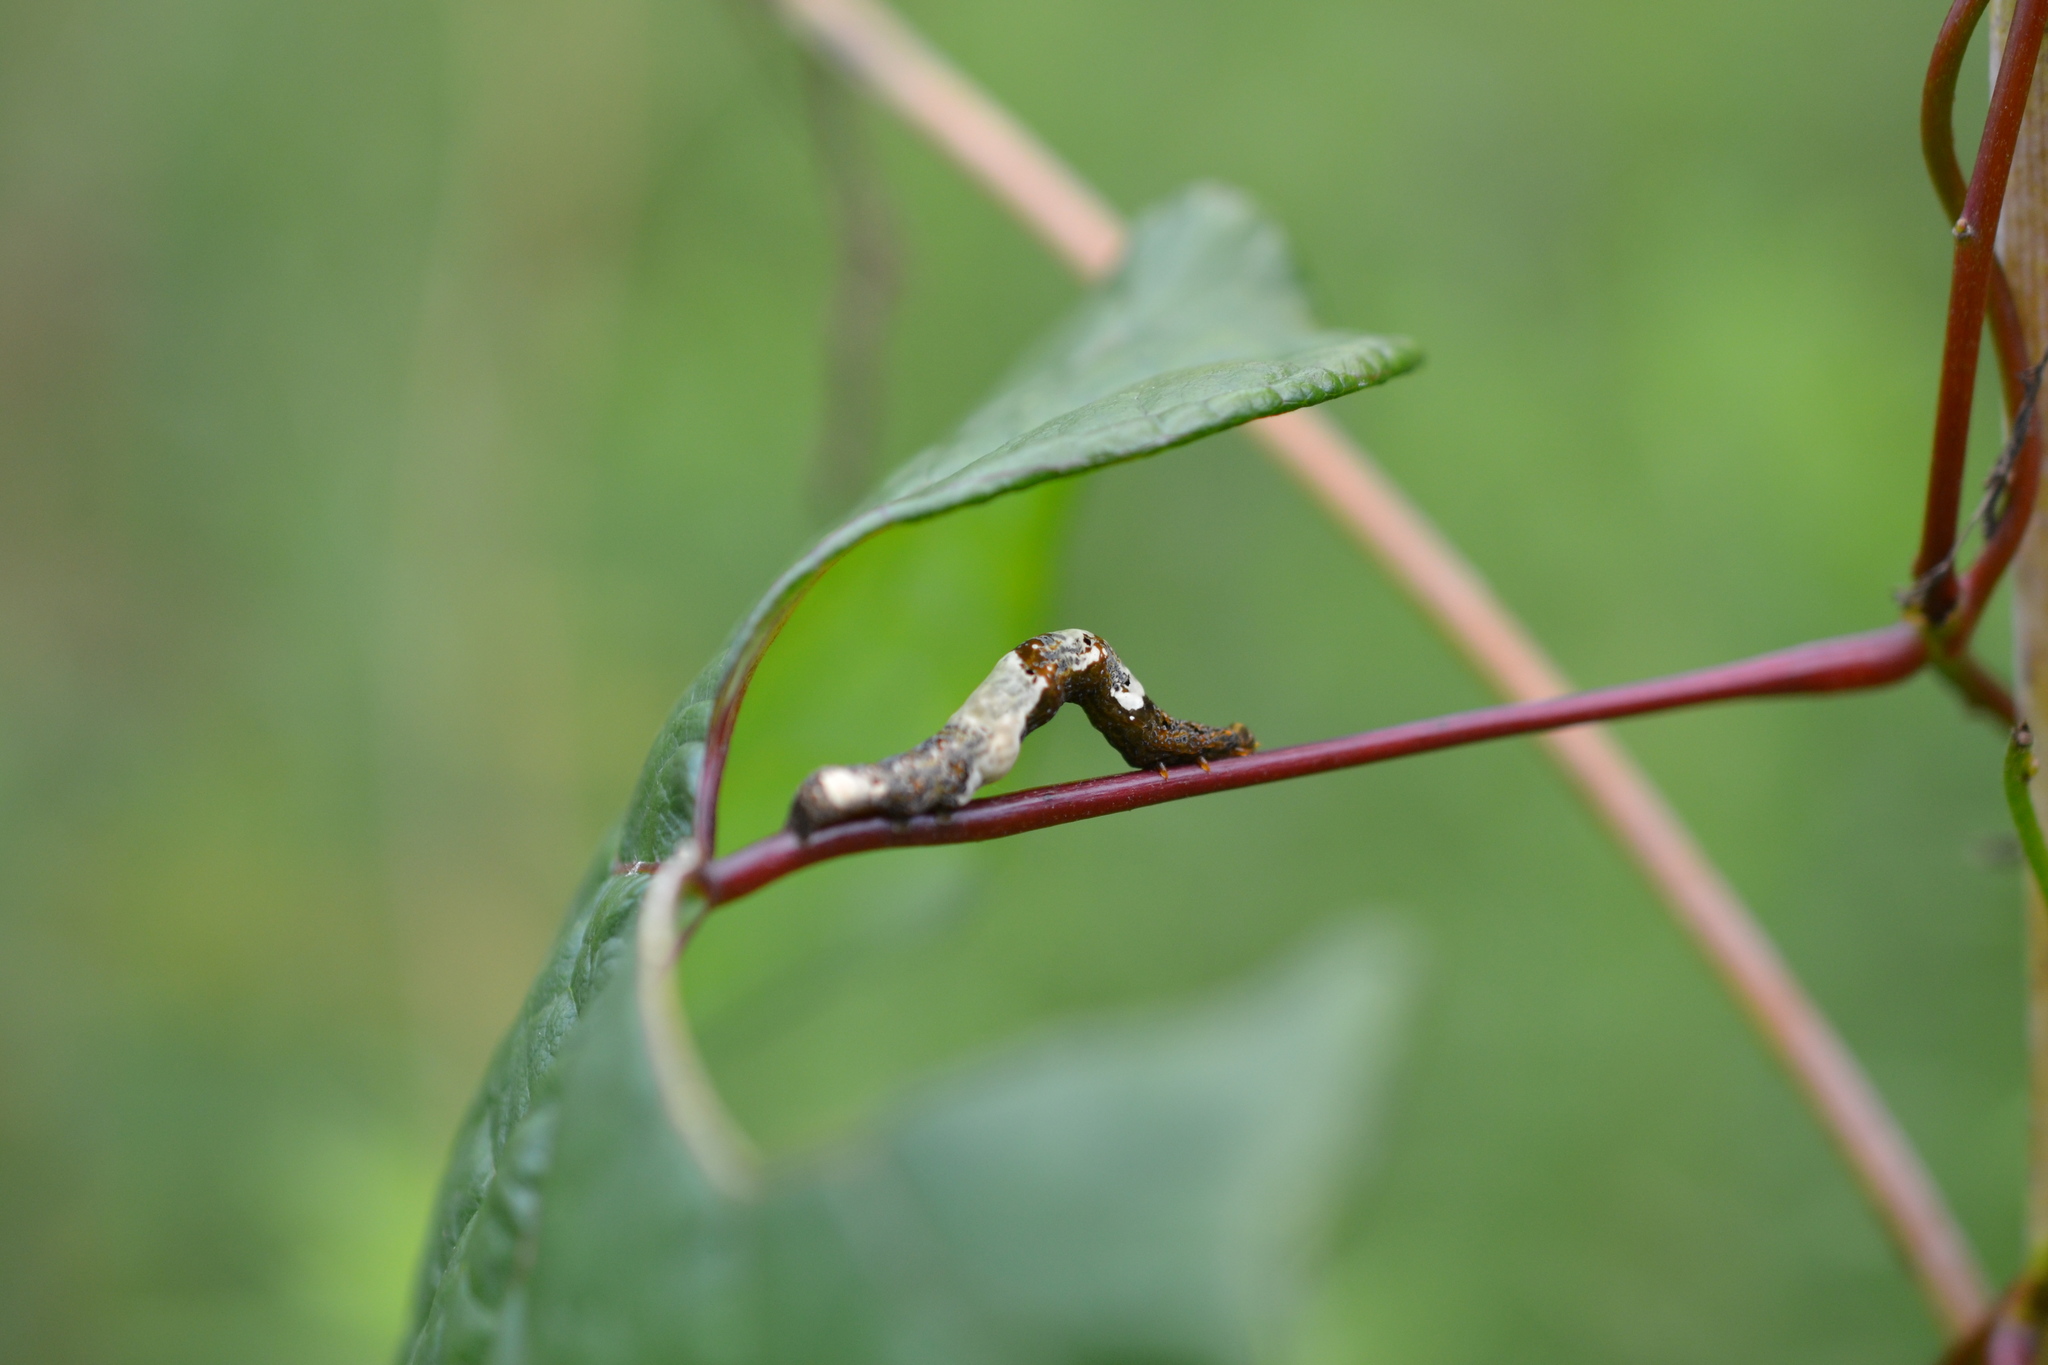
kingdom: Animalia
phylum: Arthropoda
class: Insecta
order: Lepidoptera
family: Erebidae
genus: Plusiodonta
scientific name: Plusiodonta compressipalpis
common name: Moonseed moth
